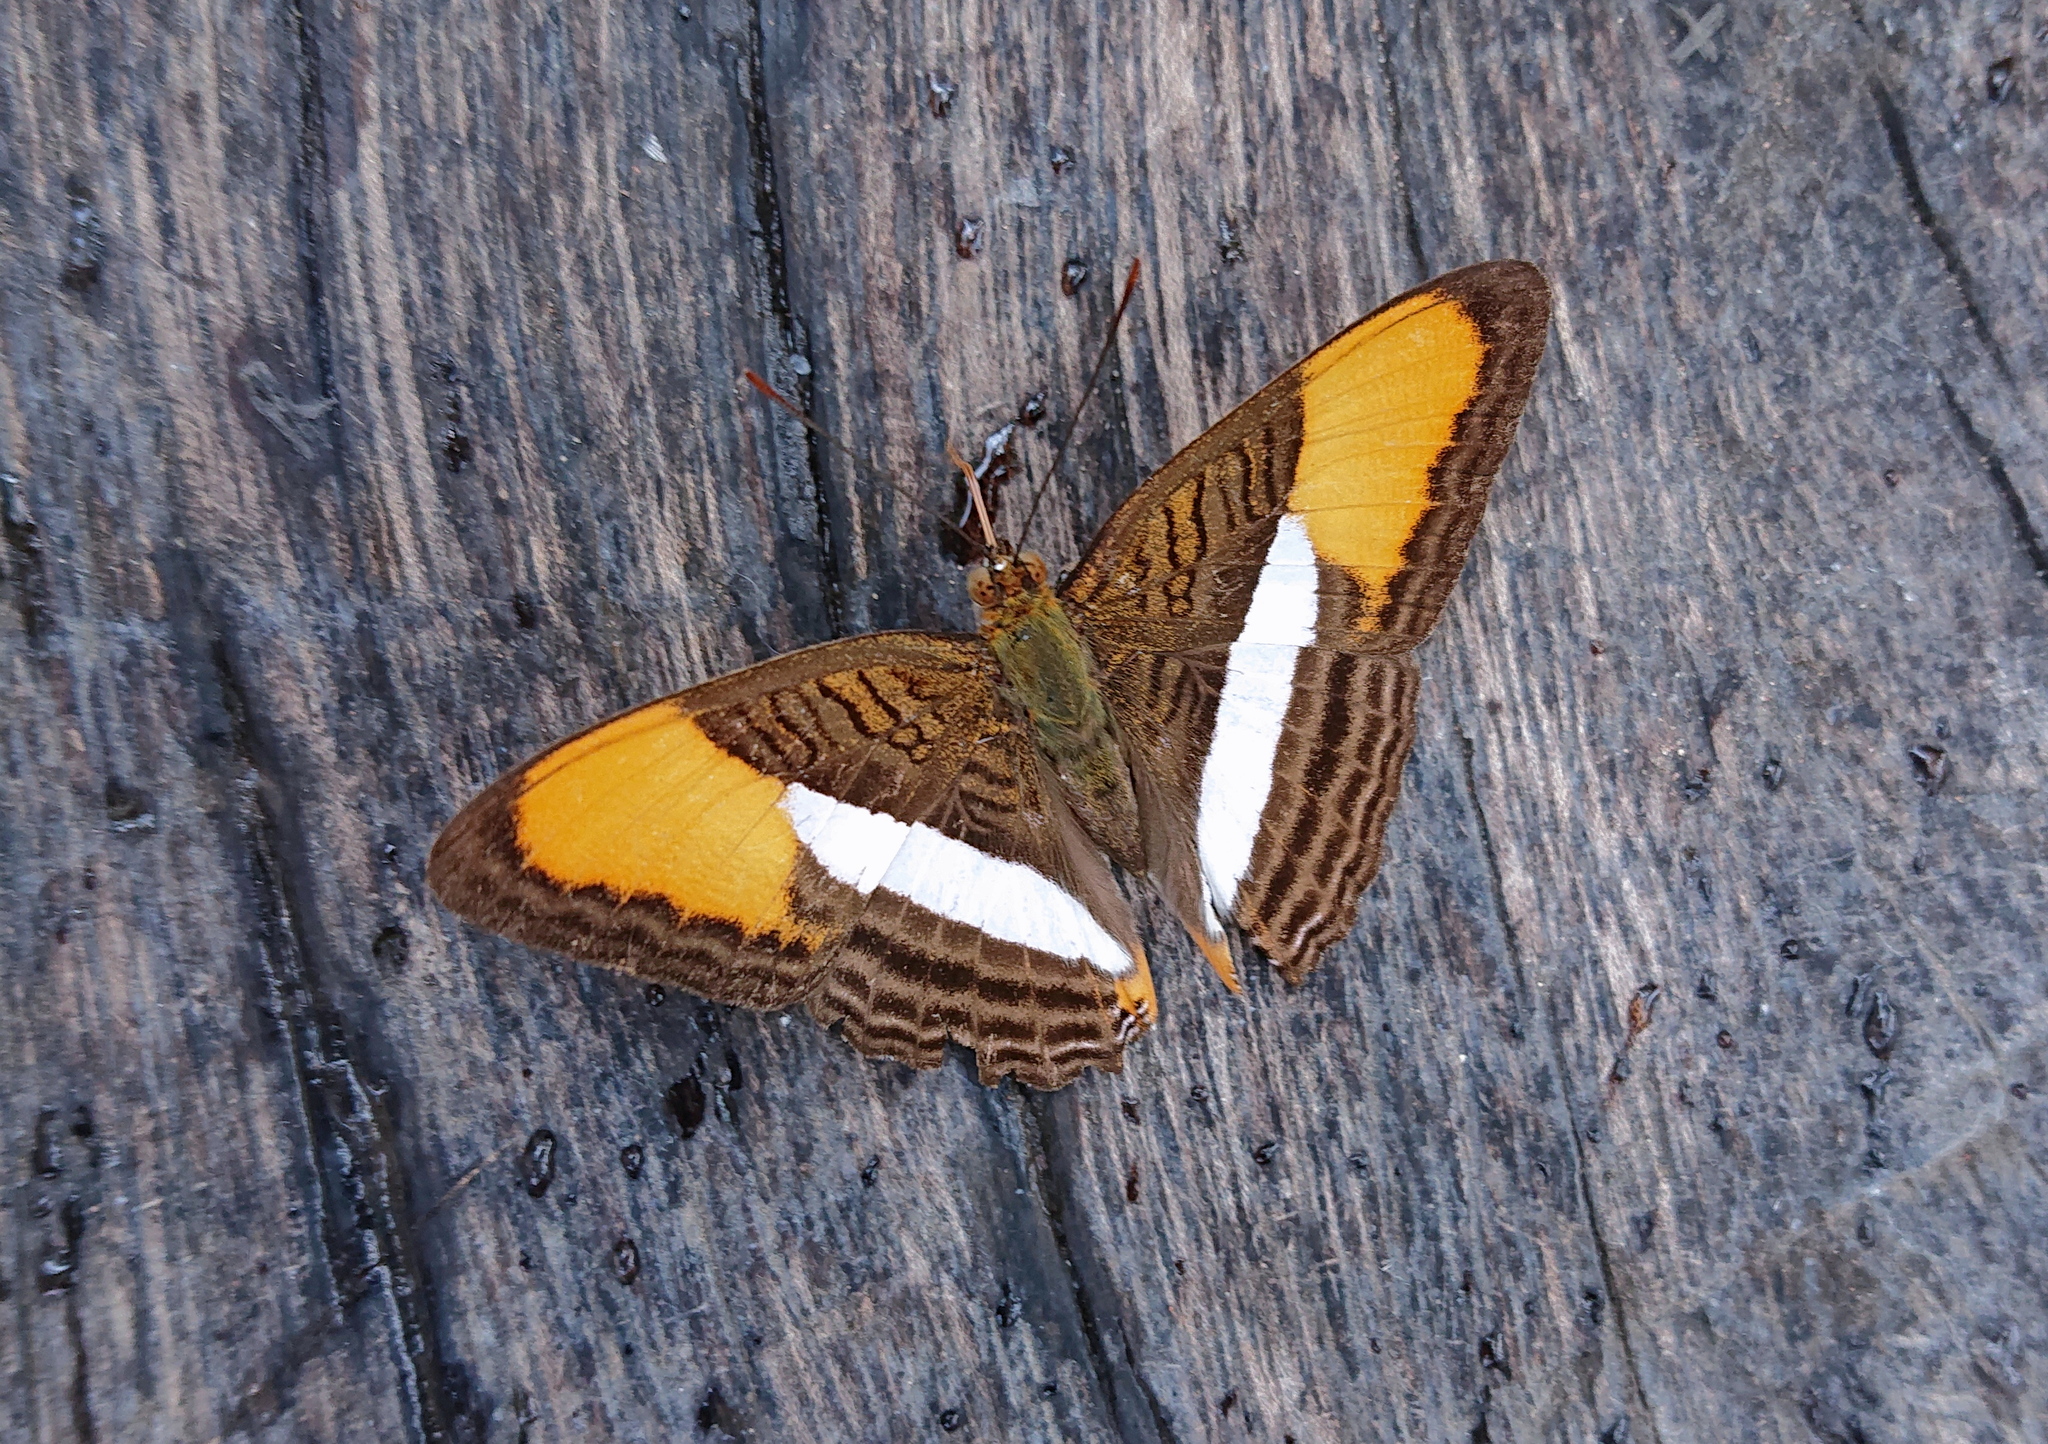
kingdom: Animalia
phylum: Arthropoda
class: Insecta
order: Lepidoptera
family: Nymphalidae
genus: Limenitis
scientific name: Limenitis cytherea
